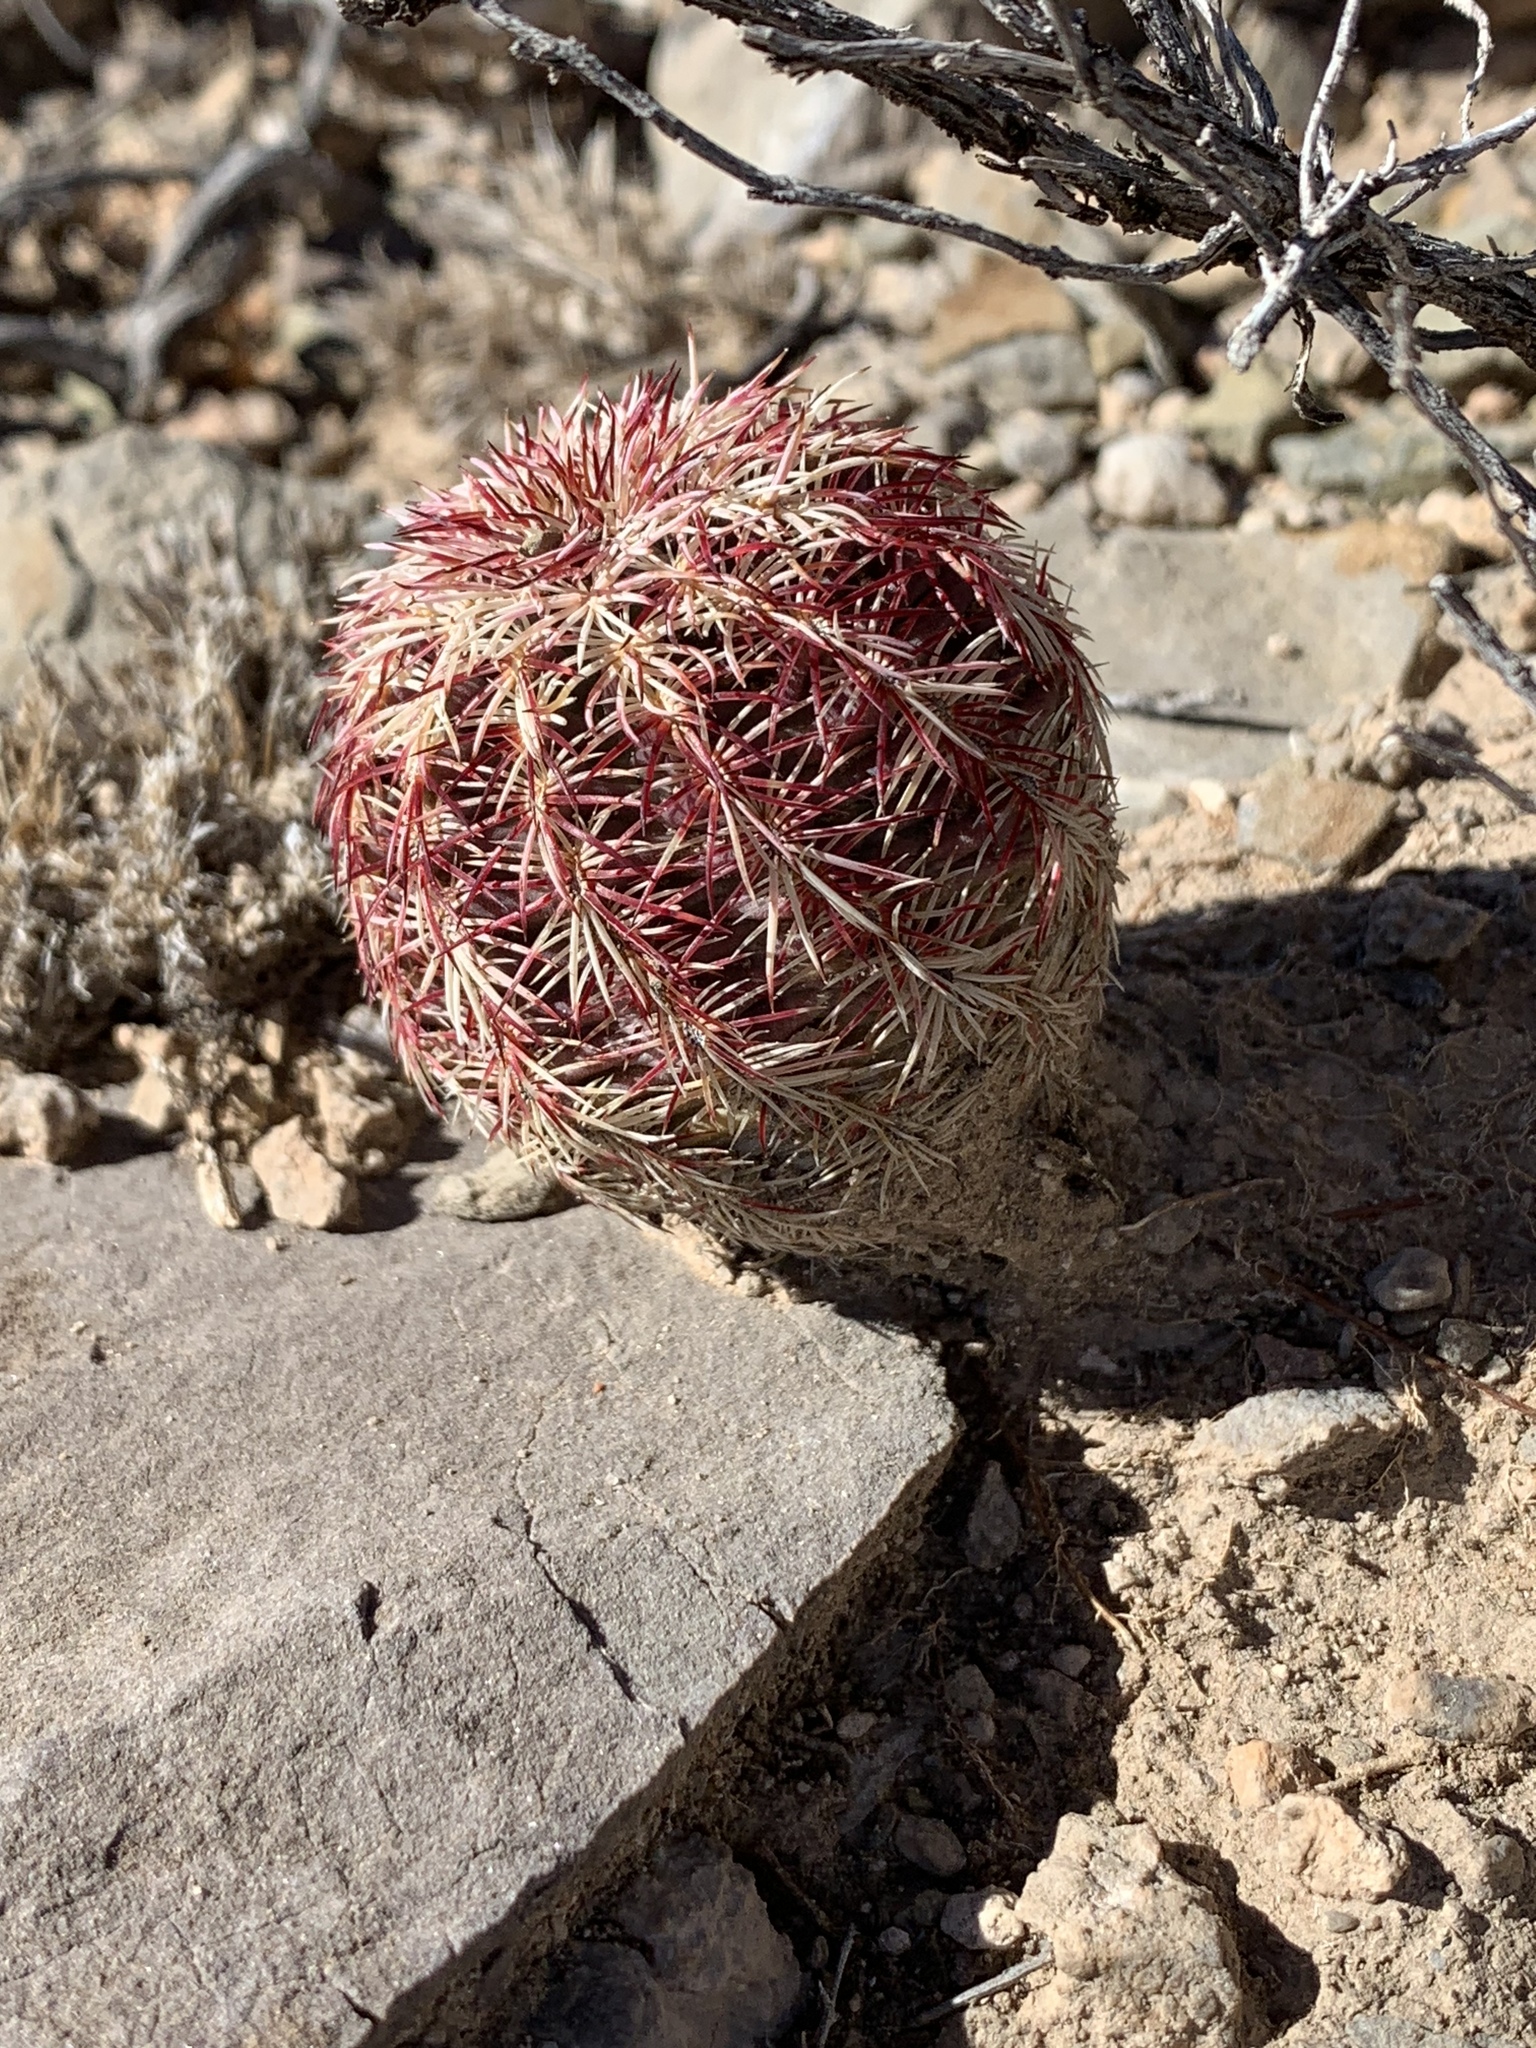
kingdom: Plantae
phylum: Tracheophyta
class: Magnoliopsida
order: Caryophyllales
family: Cactaceae
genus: Echinocereus
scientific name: Echinocereus viridiflorus
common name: Nylon hedgehog cactus
